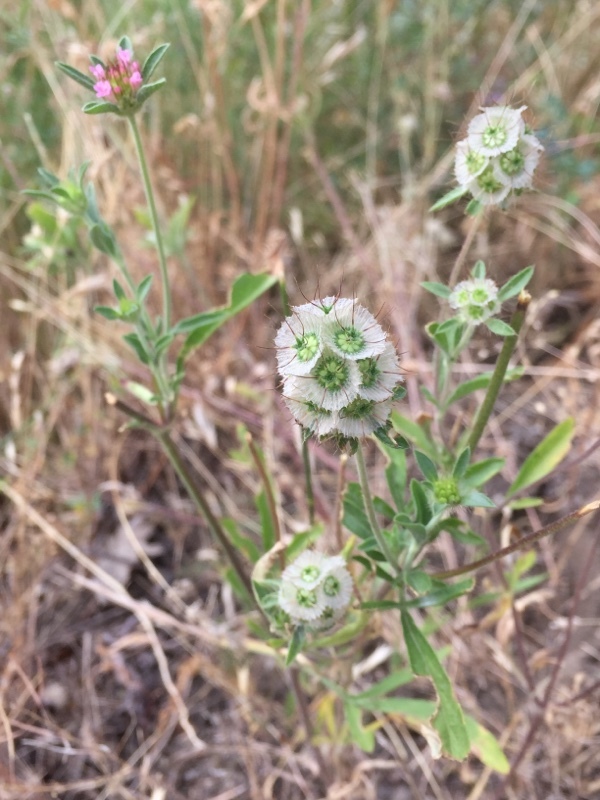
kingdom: Plantae
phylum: Tracheophyta
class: Magnoliopsida
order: Dipsacales
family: Caprifoliaceae
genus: Lomelosia
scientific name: Lomelosia micrantha
